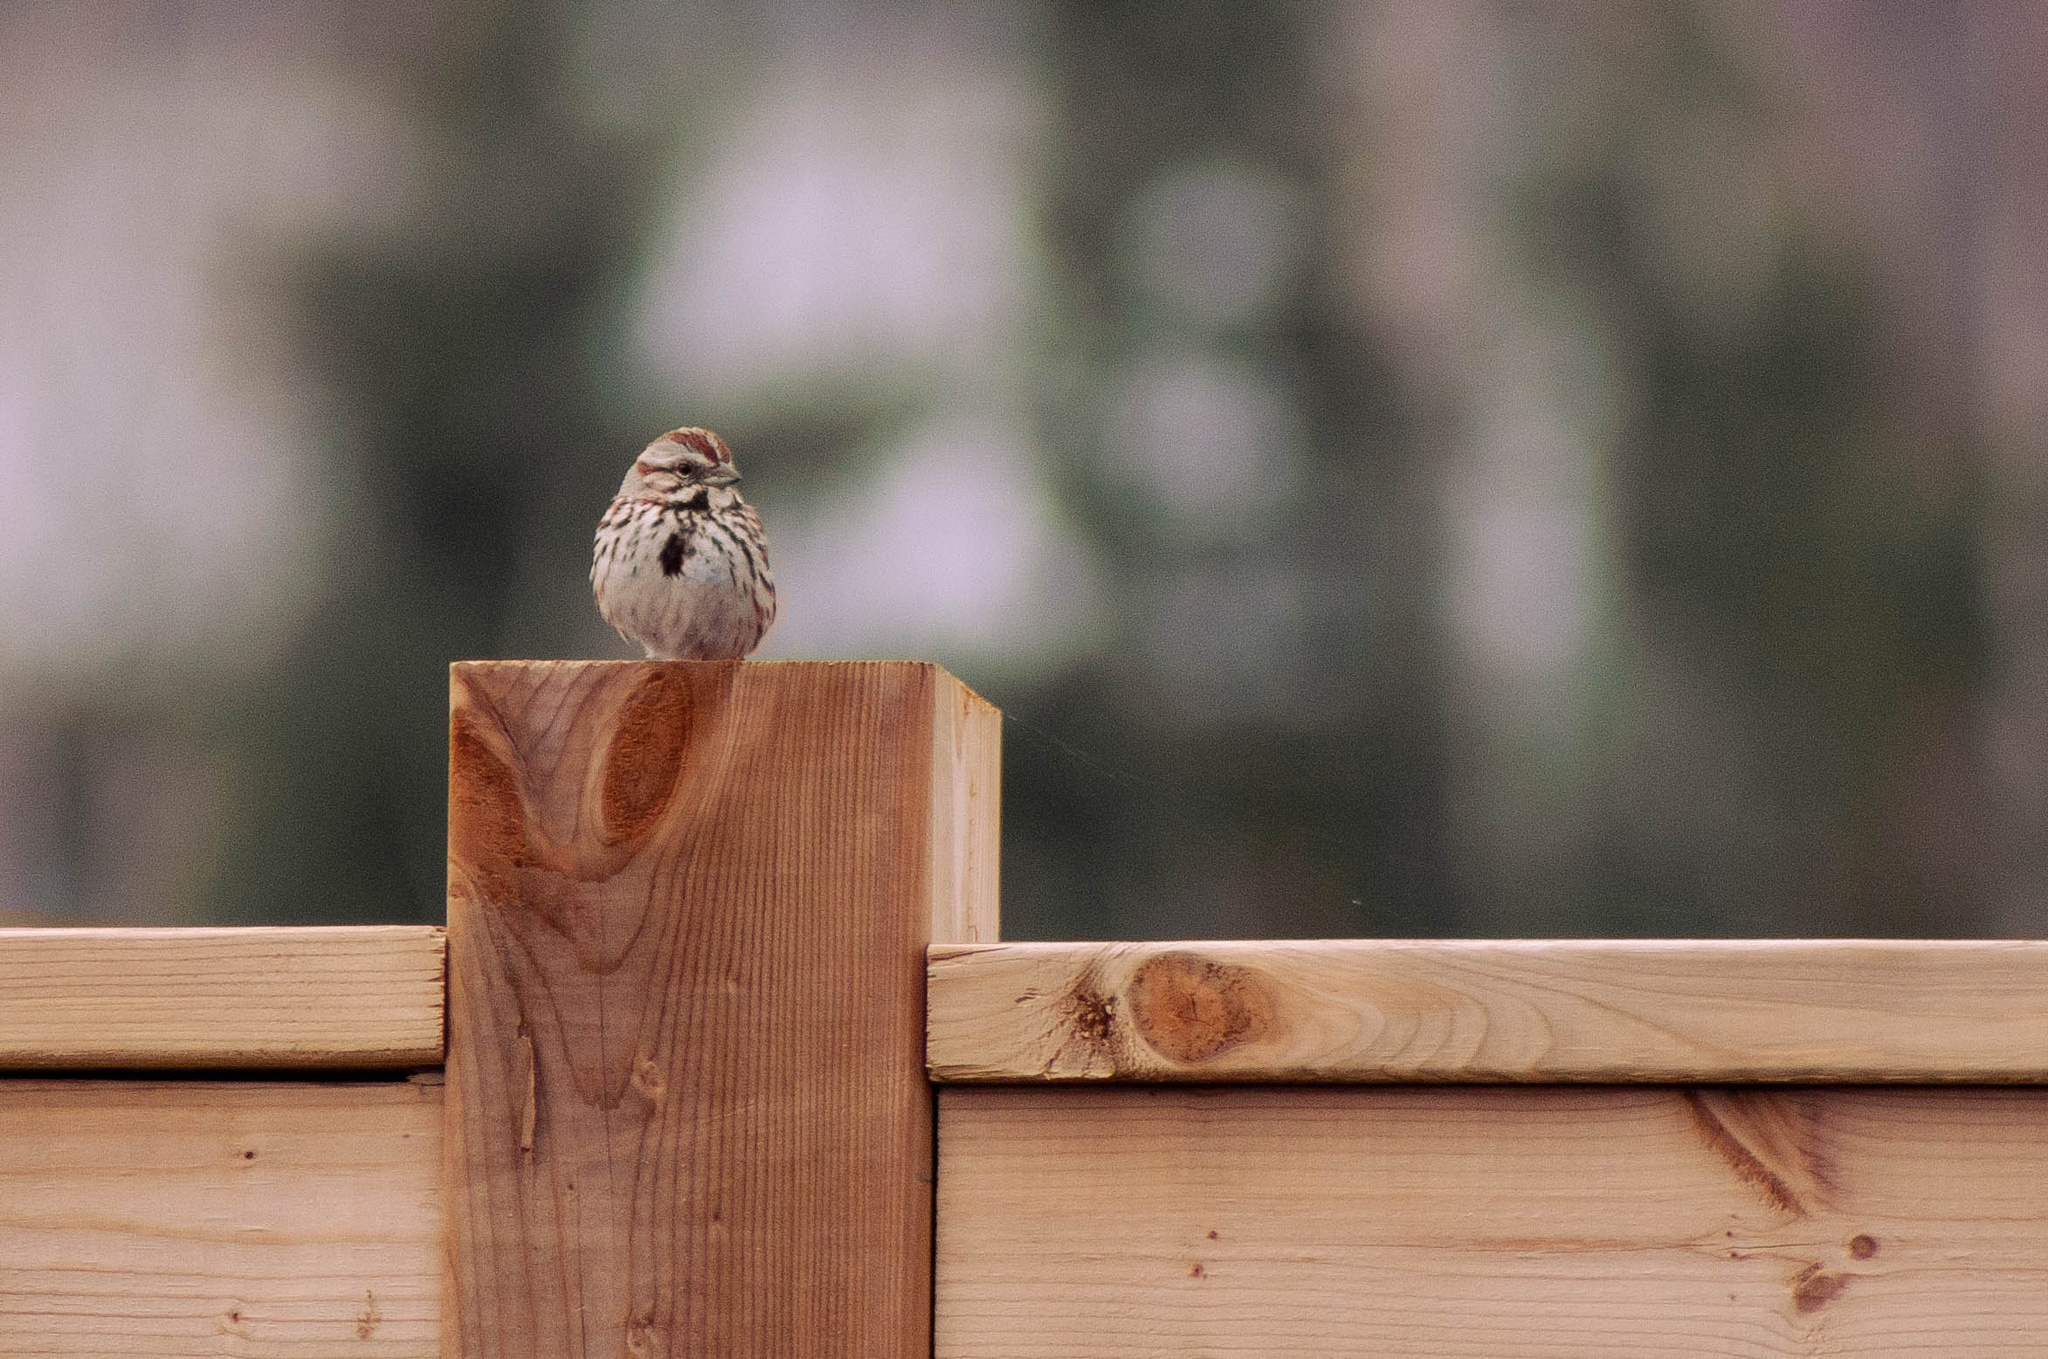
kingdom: Animalia
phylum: Chordata
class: Aves
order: Passeriformes
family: Passerellidae
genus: Melospiza
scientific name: Melospiza melodia
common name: Song sparrow
